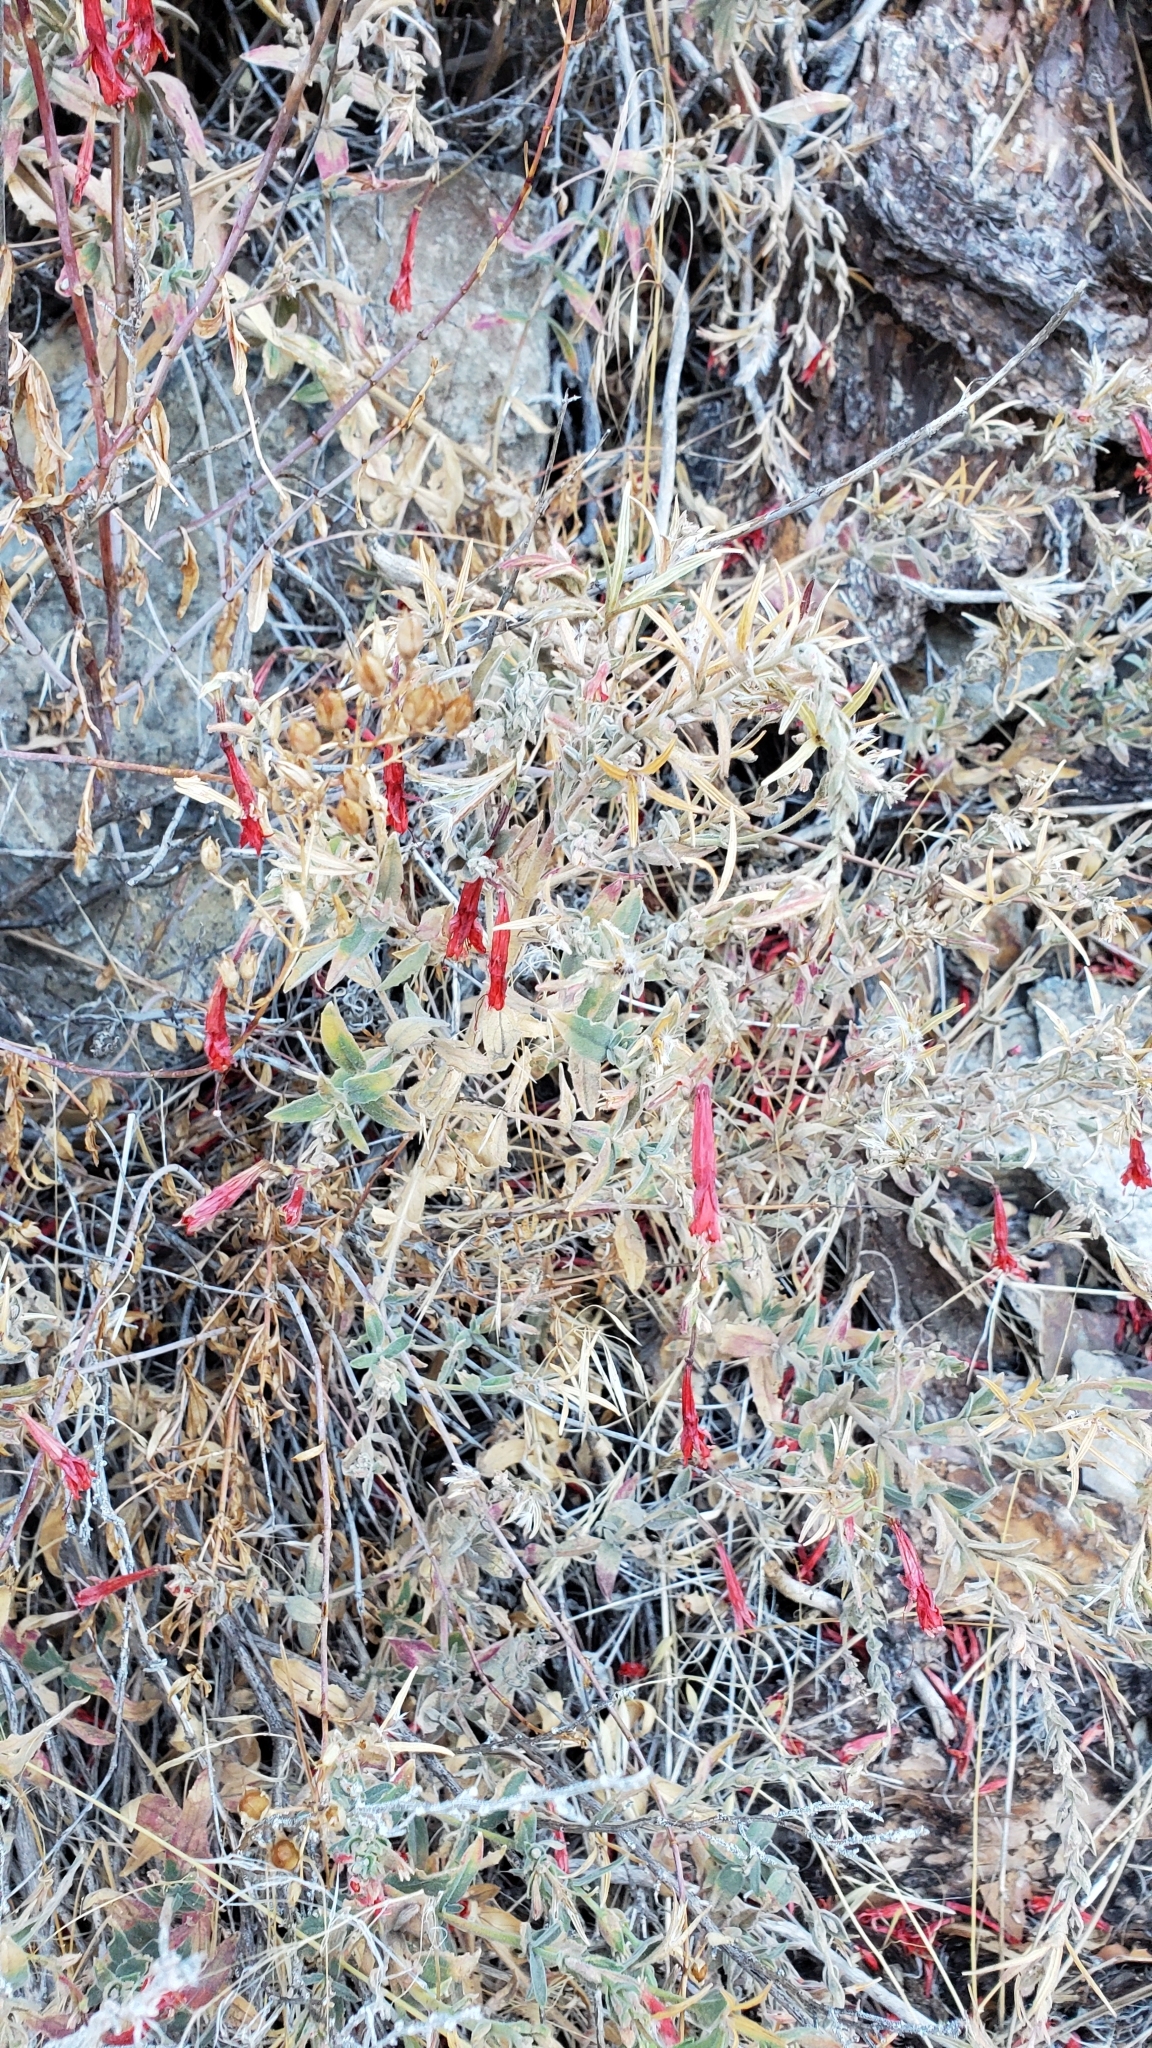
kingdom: Plantae
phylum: Tracheophyta
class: Magnoliopsida
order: Myrtales
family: Onagraceae
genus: Epilobium
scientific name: Epilobium canum
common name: California-fuchsia
